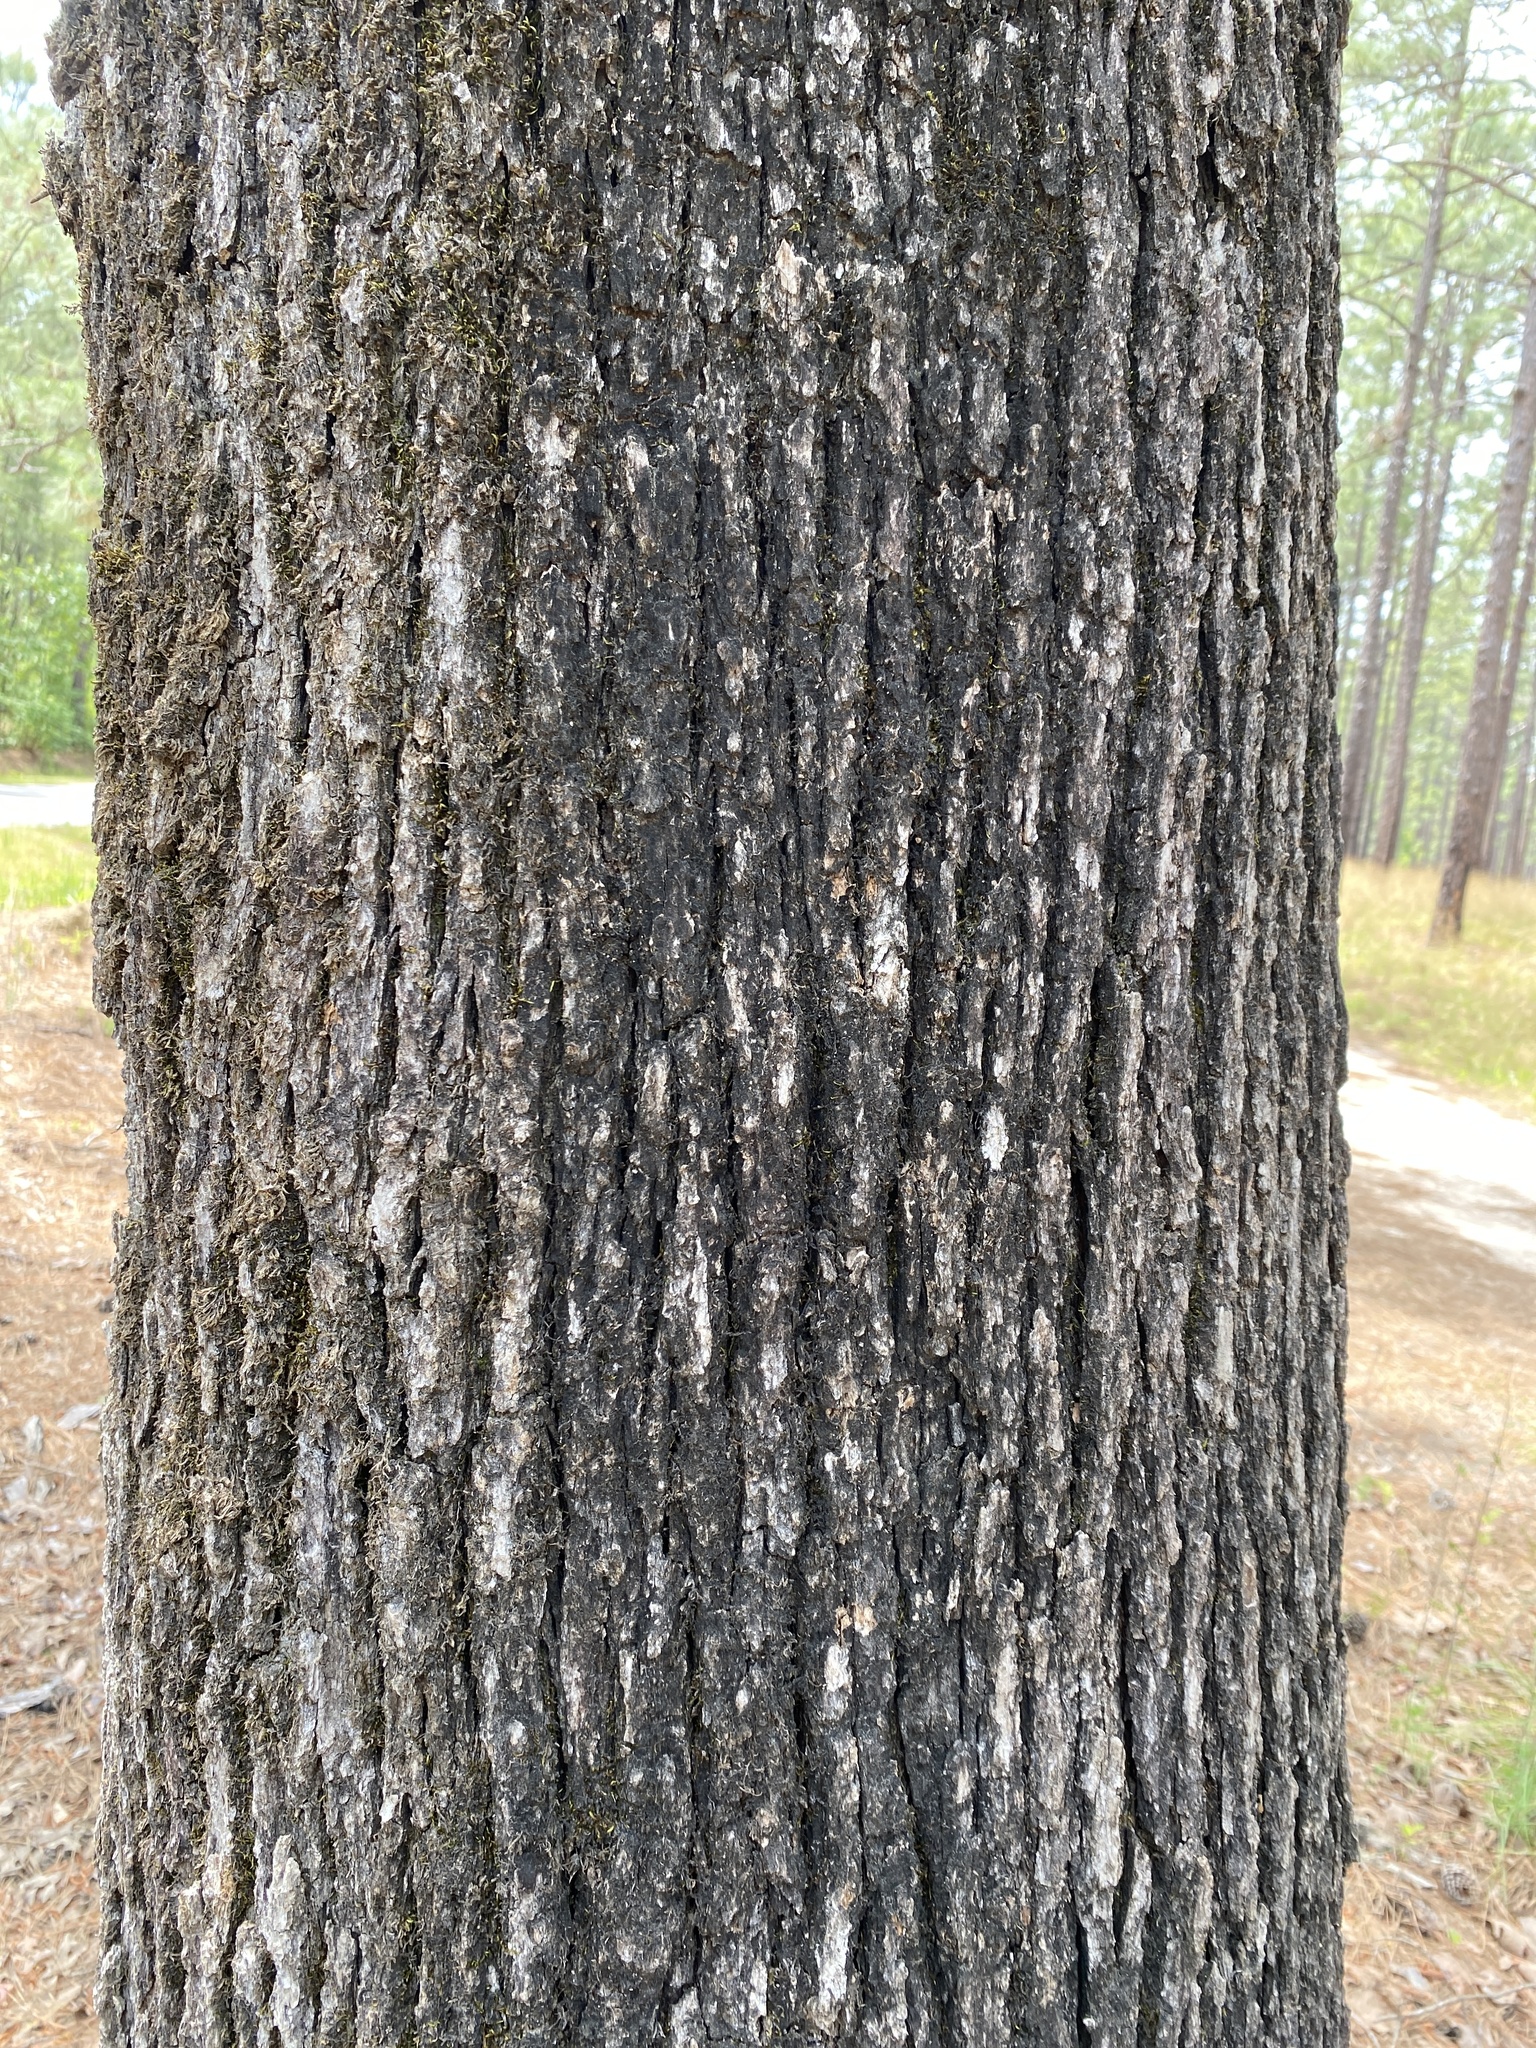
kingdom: Plantae
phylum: Tracheophyta
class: Magnoliopsida
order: Fagales
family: Fagaceae
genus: Quercus
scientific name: Quercus stellata
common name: Post oak
